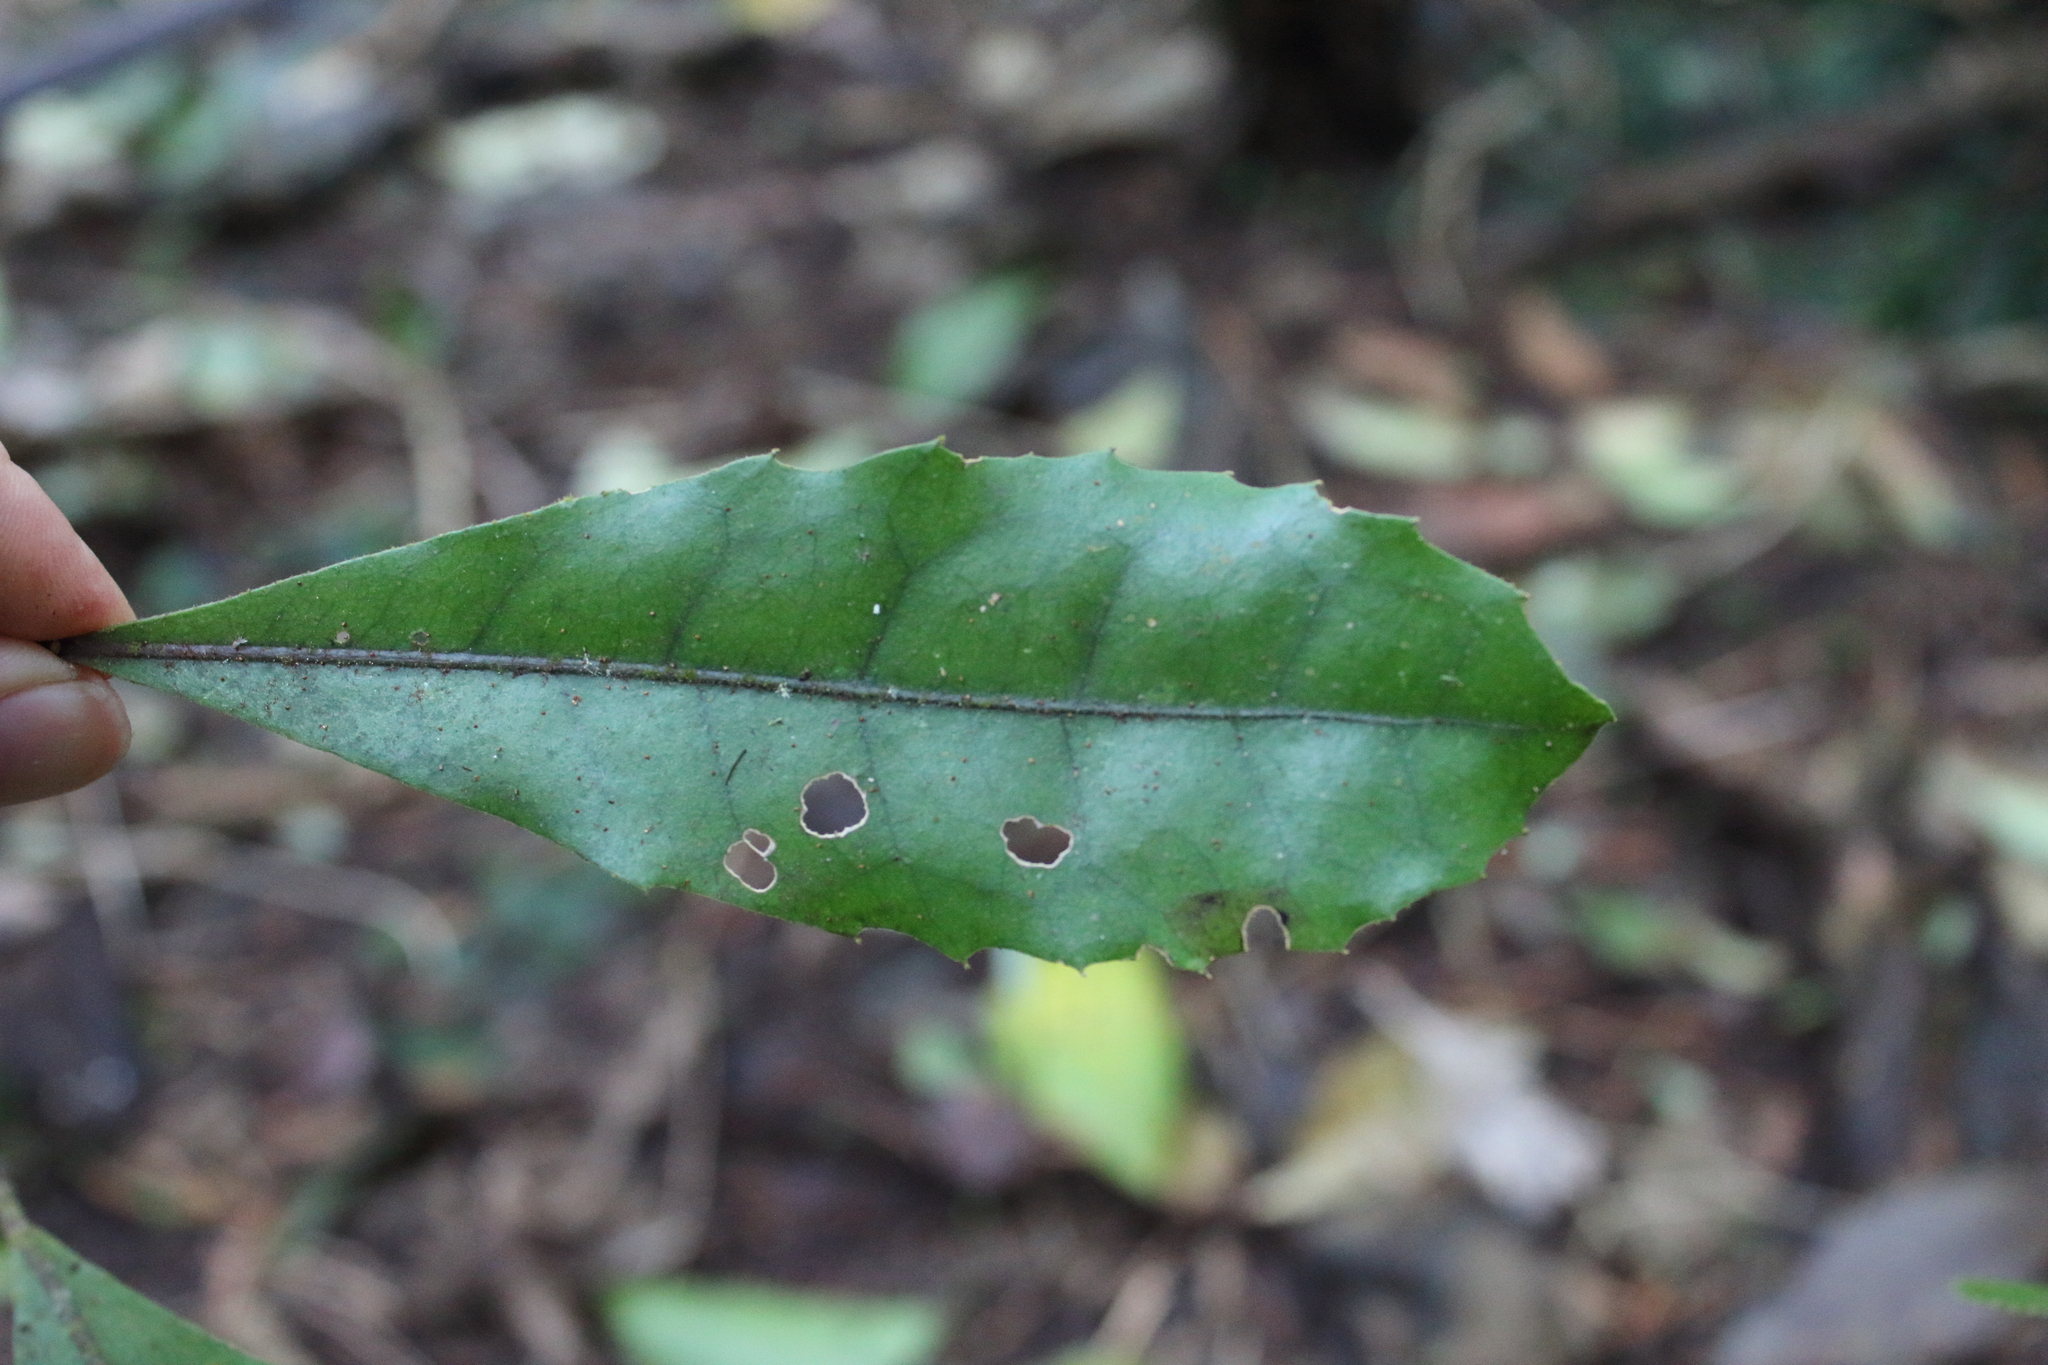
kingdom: Plantae
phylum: Tracheophyta
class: Magnoliopsida
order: Laurales
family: Monimiaceae
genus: Hedycarya
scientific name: Hedycarya arborea
